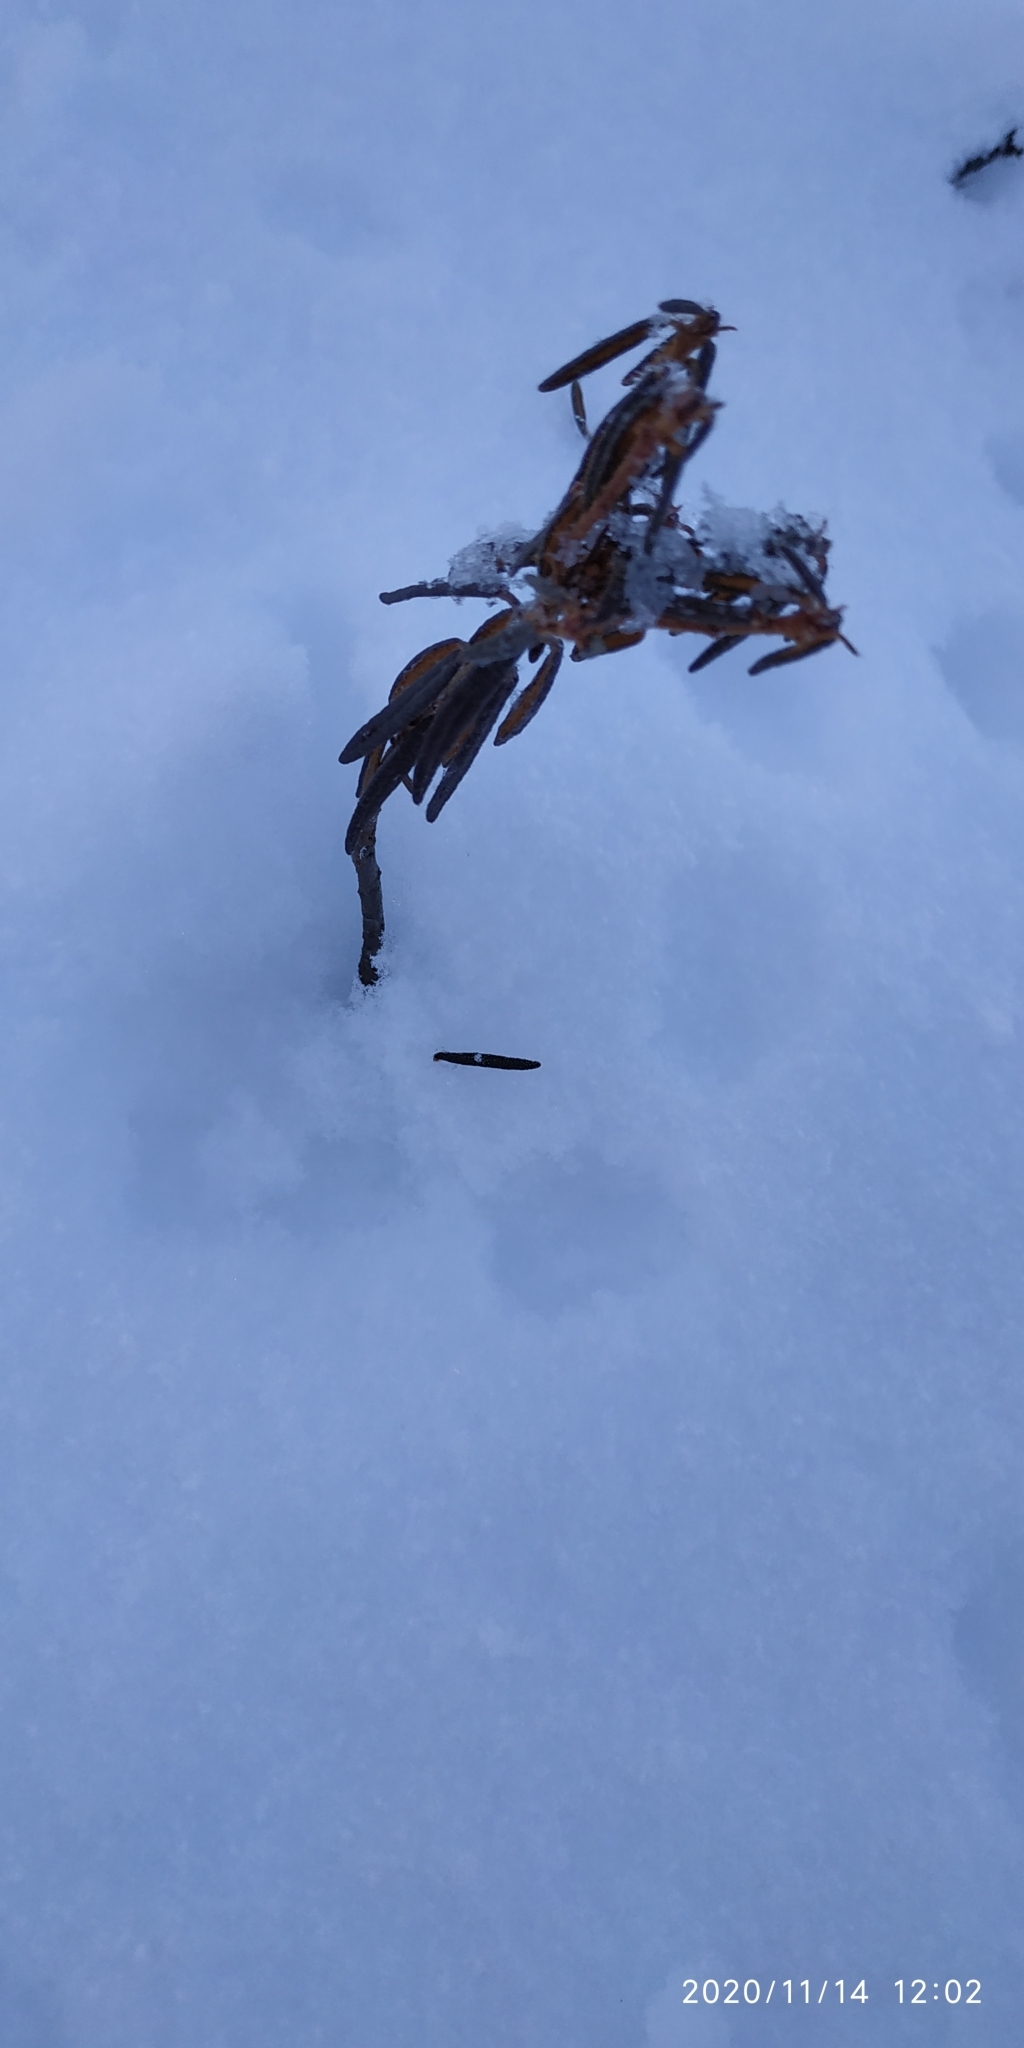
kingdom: Plantae
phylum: Tracheophyta
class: Magnoliopsida
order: Ericales
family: Ericaceae
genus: Rhododendron
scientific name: Rhododendron tomentosum
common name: Marsh labrador tea
